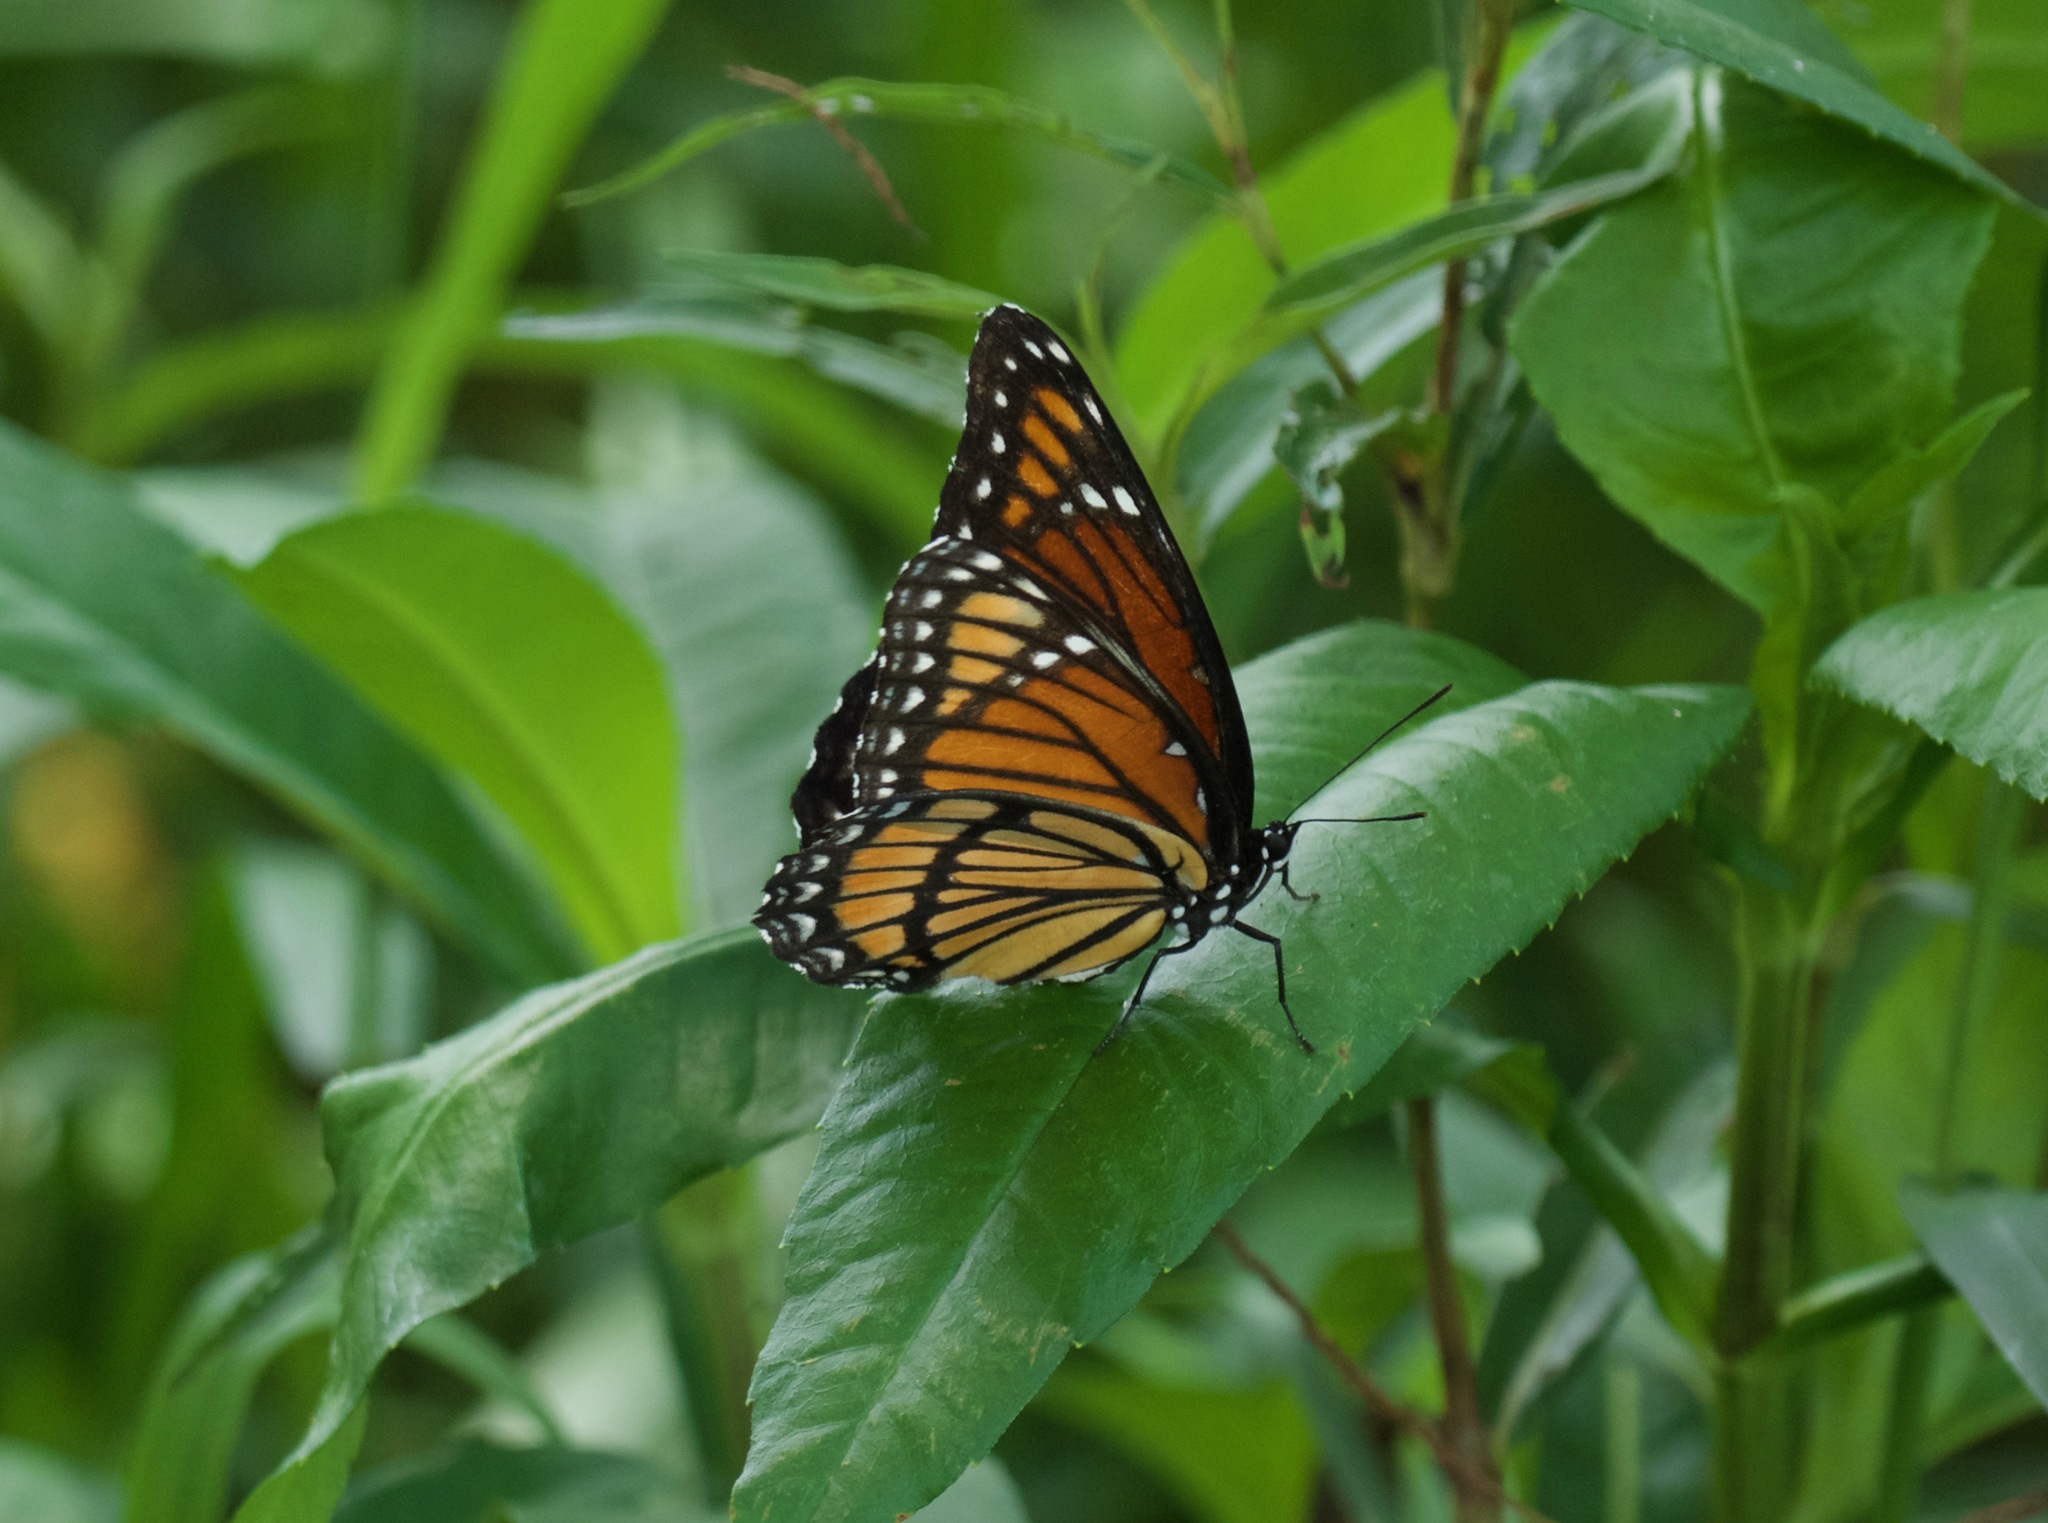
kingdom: Animalia
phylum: Arthropoda
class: Insecta
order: Lepidoptera
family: Nymphalidae
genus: Limenitis
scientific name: Limenitis archippus
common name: Viceroy
